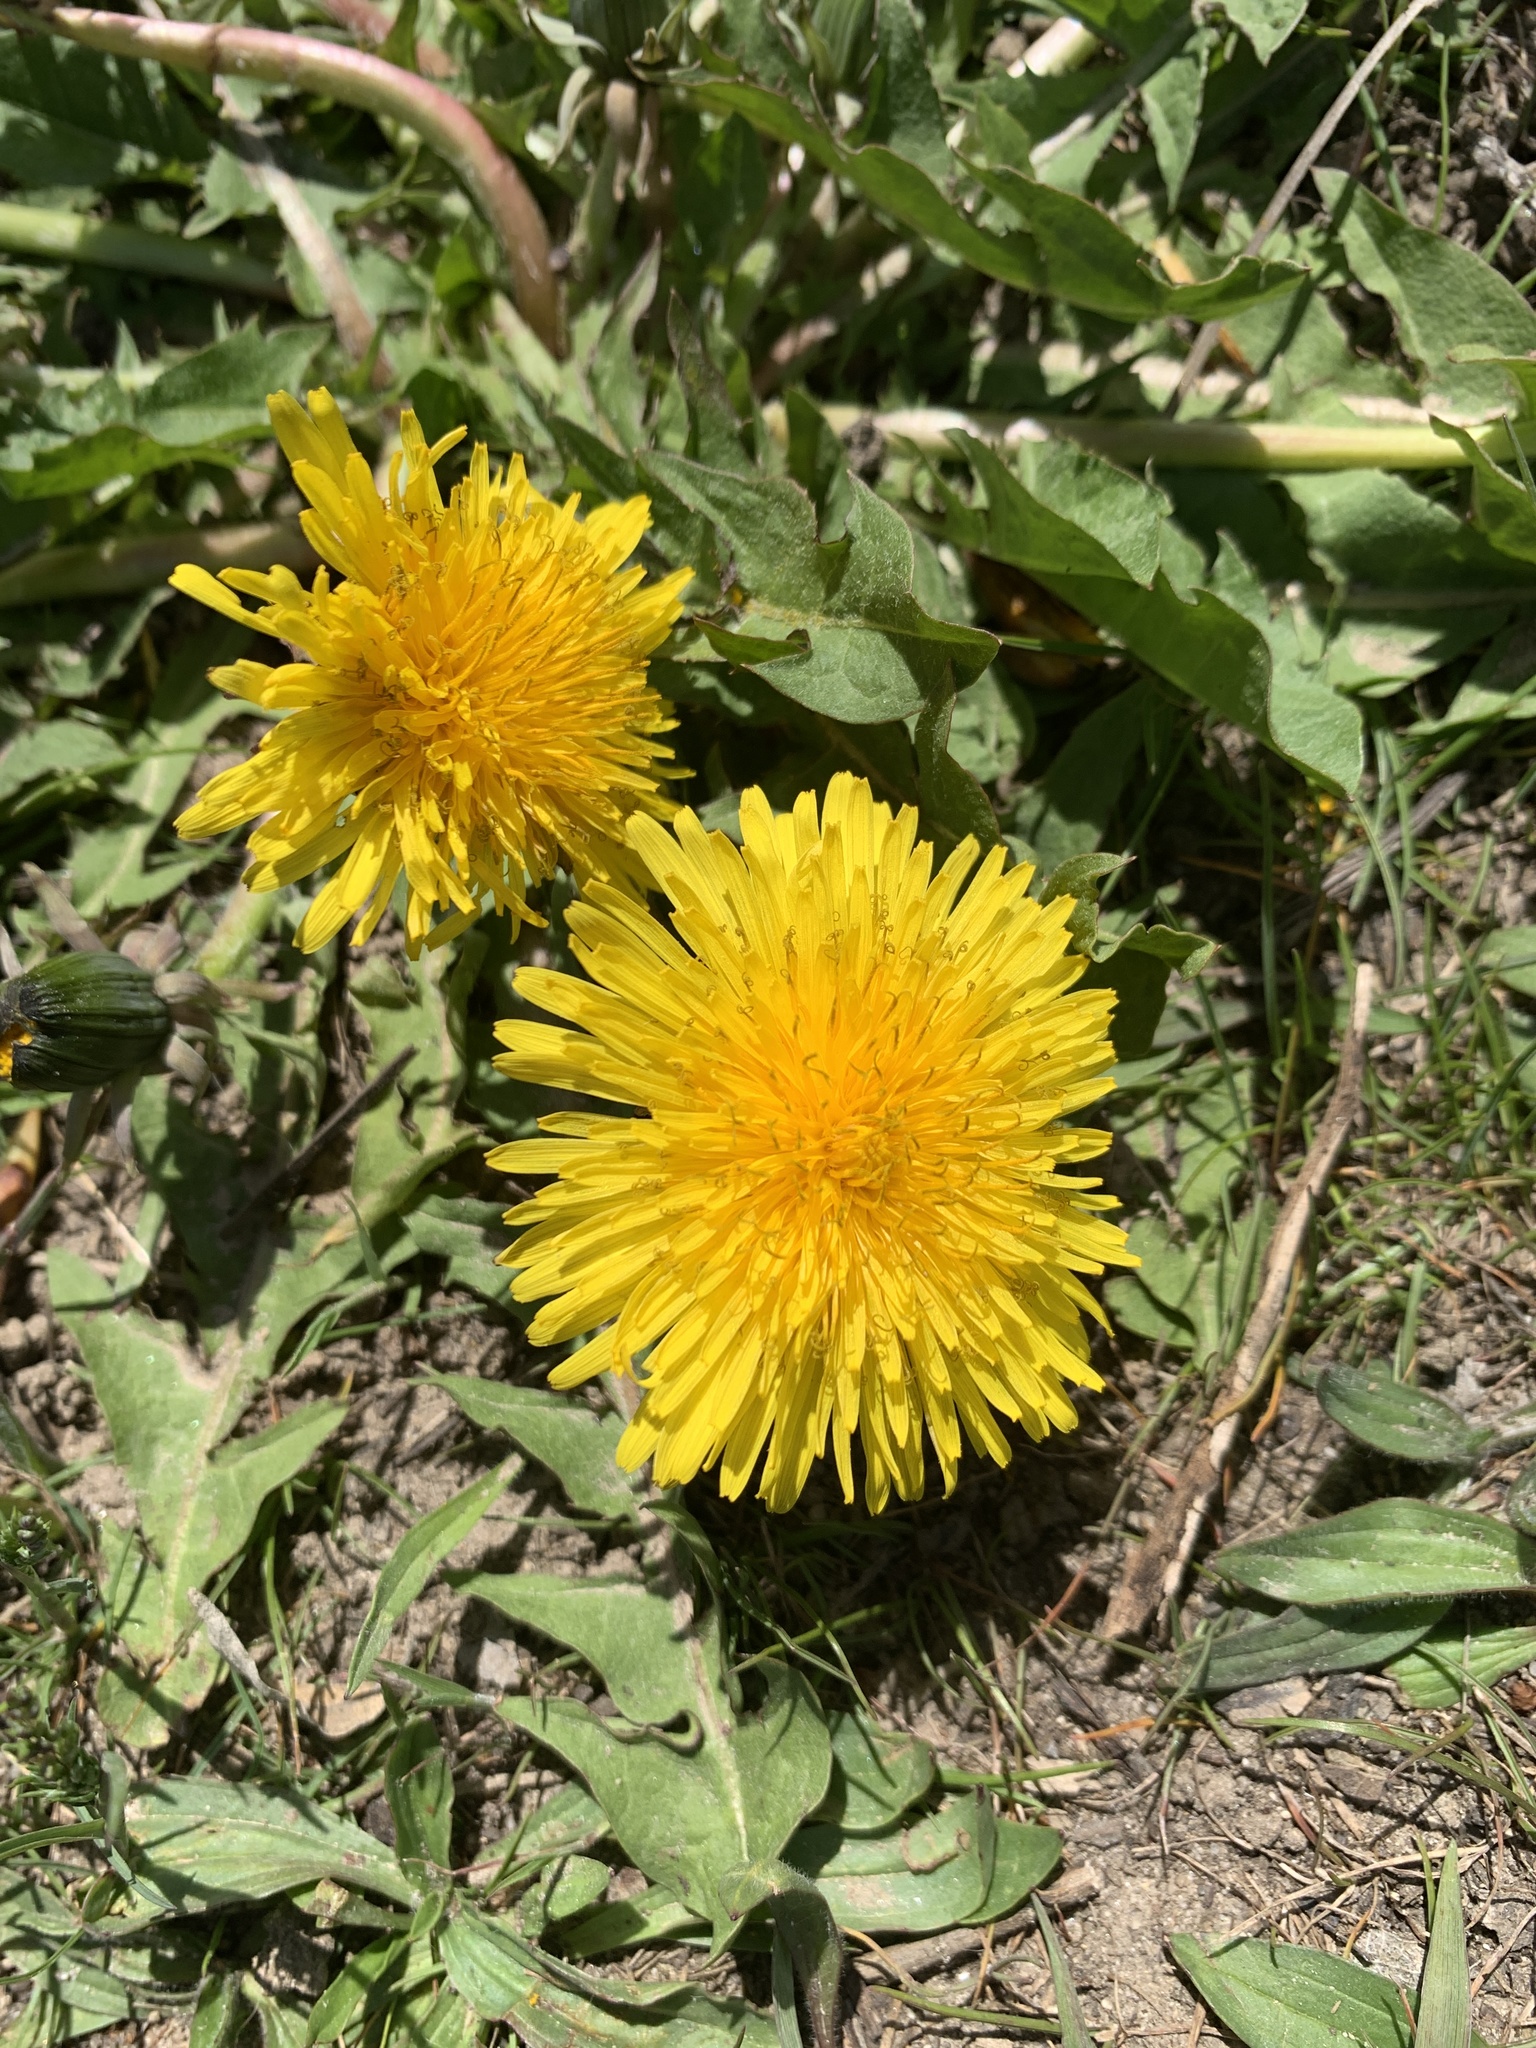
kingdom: Plantae
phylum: Tracheophyta
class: Magnoliopsida
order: Asterales
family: Asteraceae
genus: Taraxacum
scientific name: Taraxacum officinale
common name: Common dandelion
